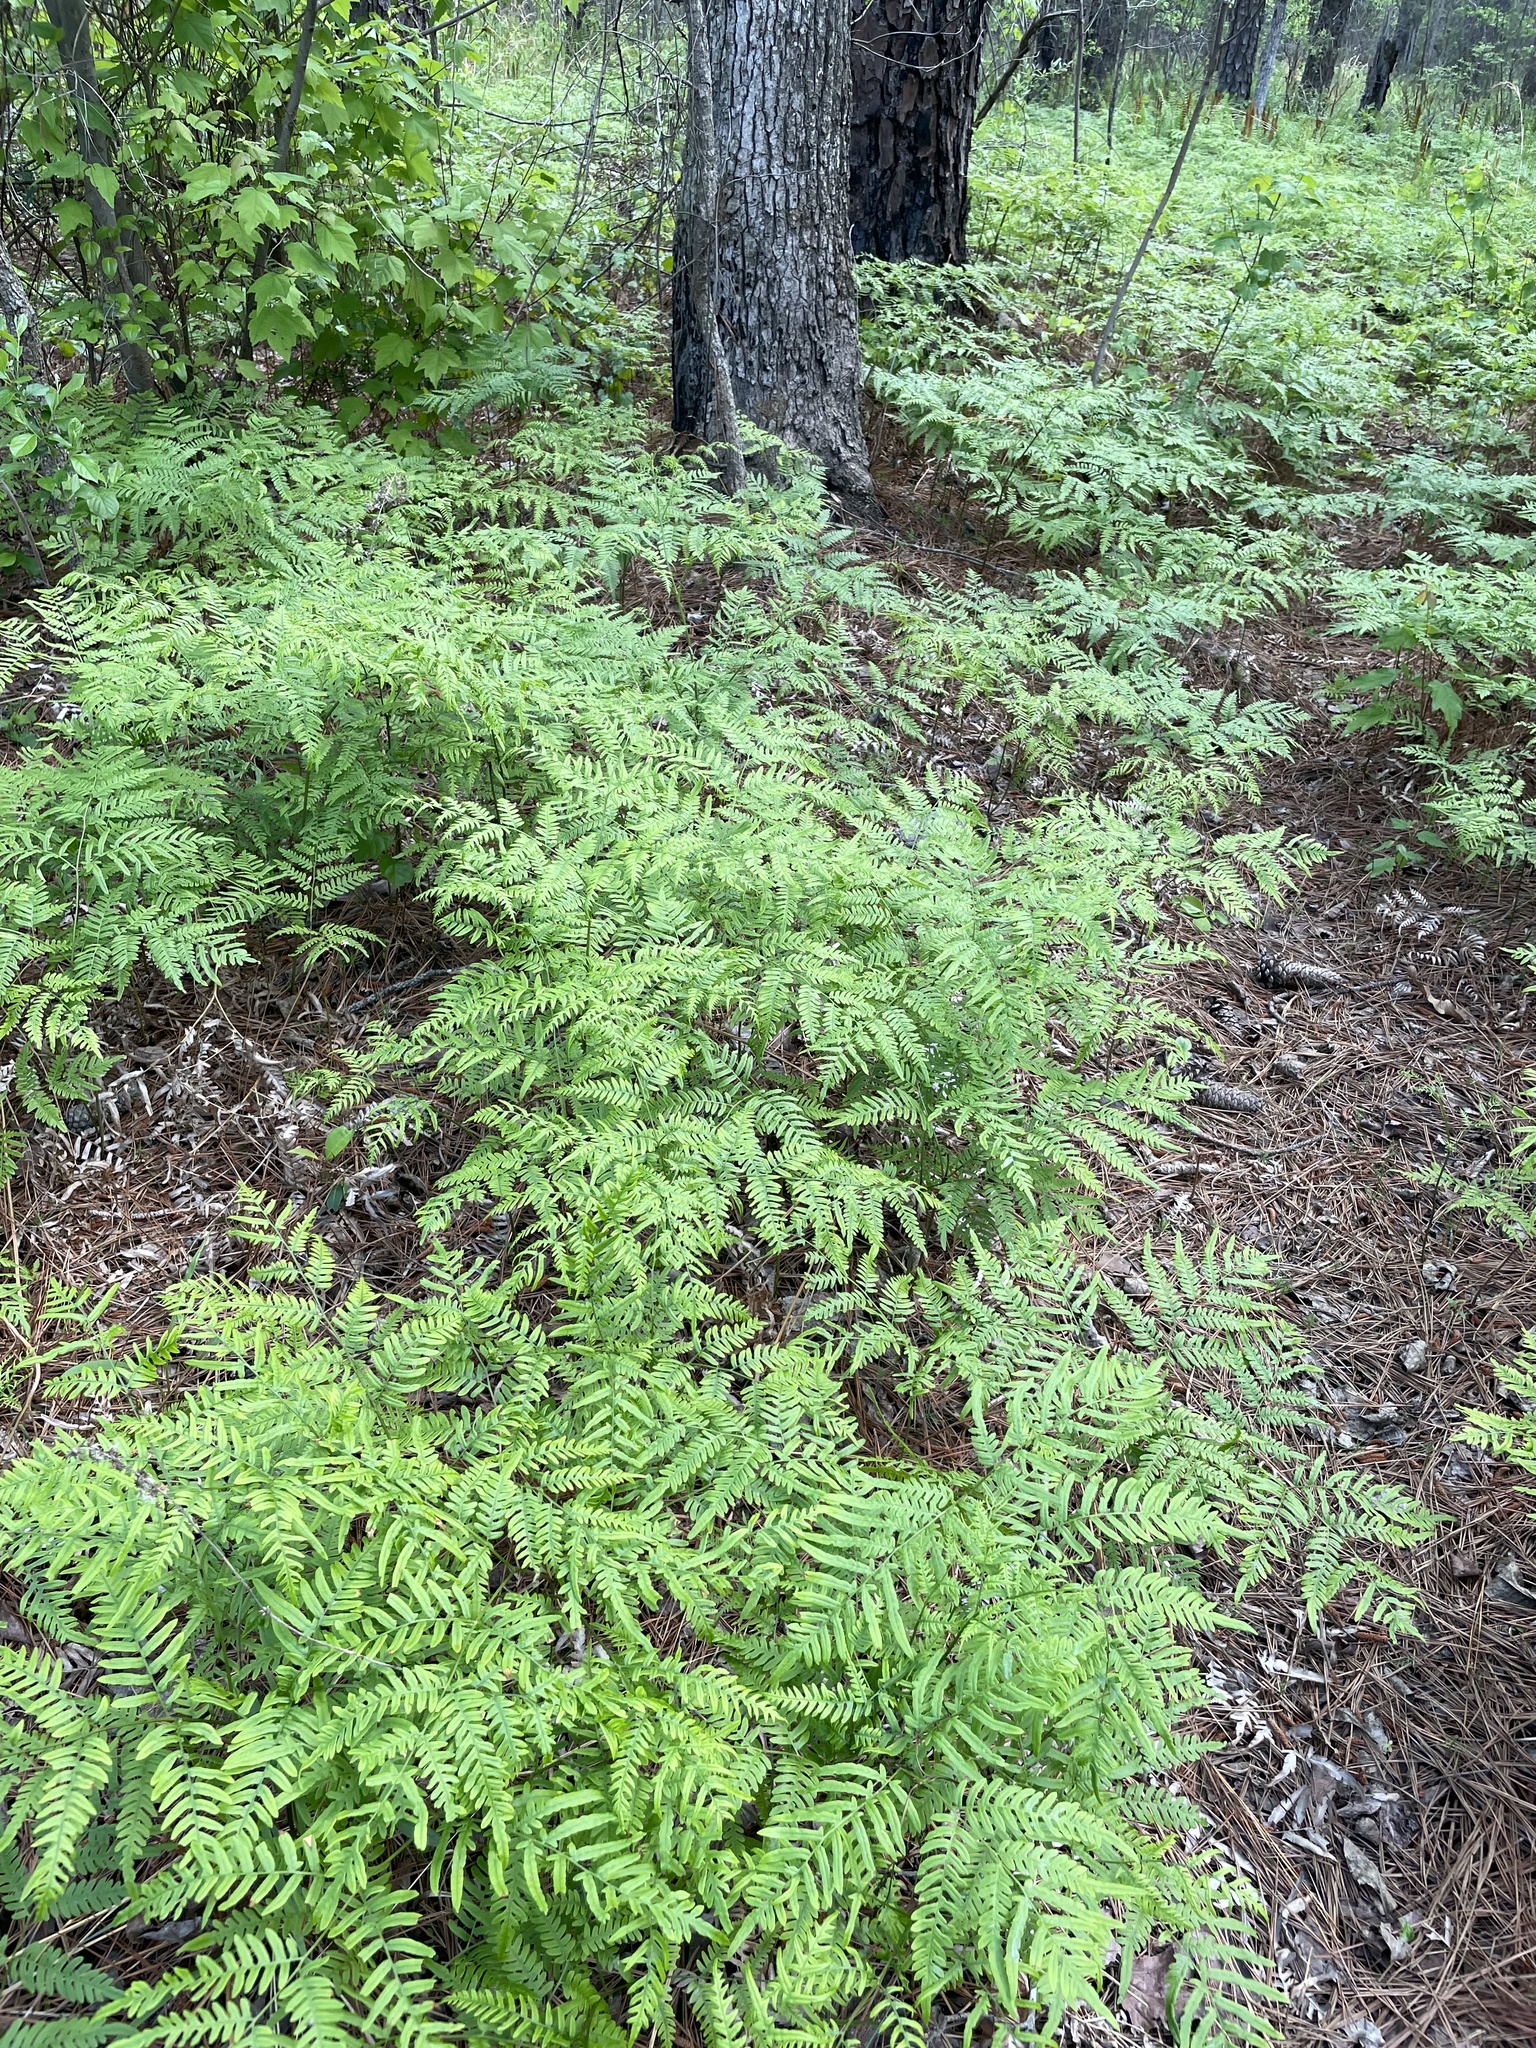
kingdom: Plantae
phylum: Tracheophyta
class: Polypodiopsida
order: Polypodiales
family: Dennstaedtiaceae
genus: Pteridium
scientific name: Pteridium aquilinum
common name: Bracken
